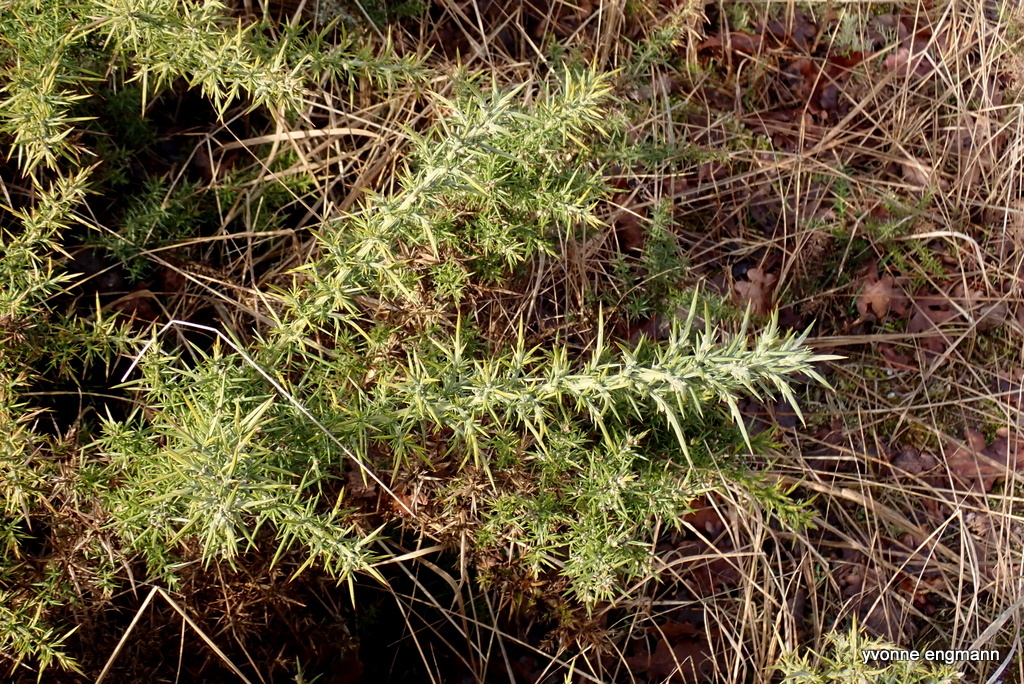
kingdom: Plantae
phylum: Tracheophyta
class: Magnoliopsida
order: Fabales
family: Fabaceae
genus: Ulex
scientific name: Ulex europaeus
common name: Common gorse
